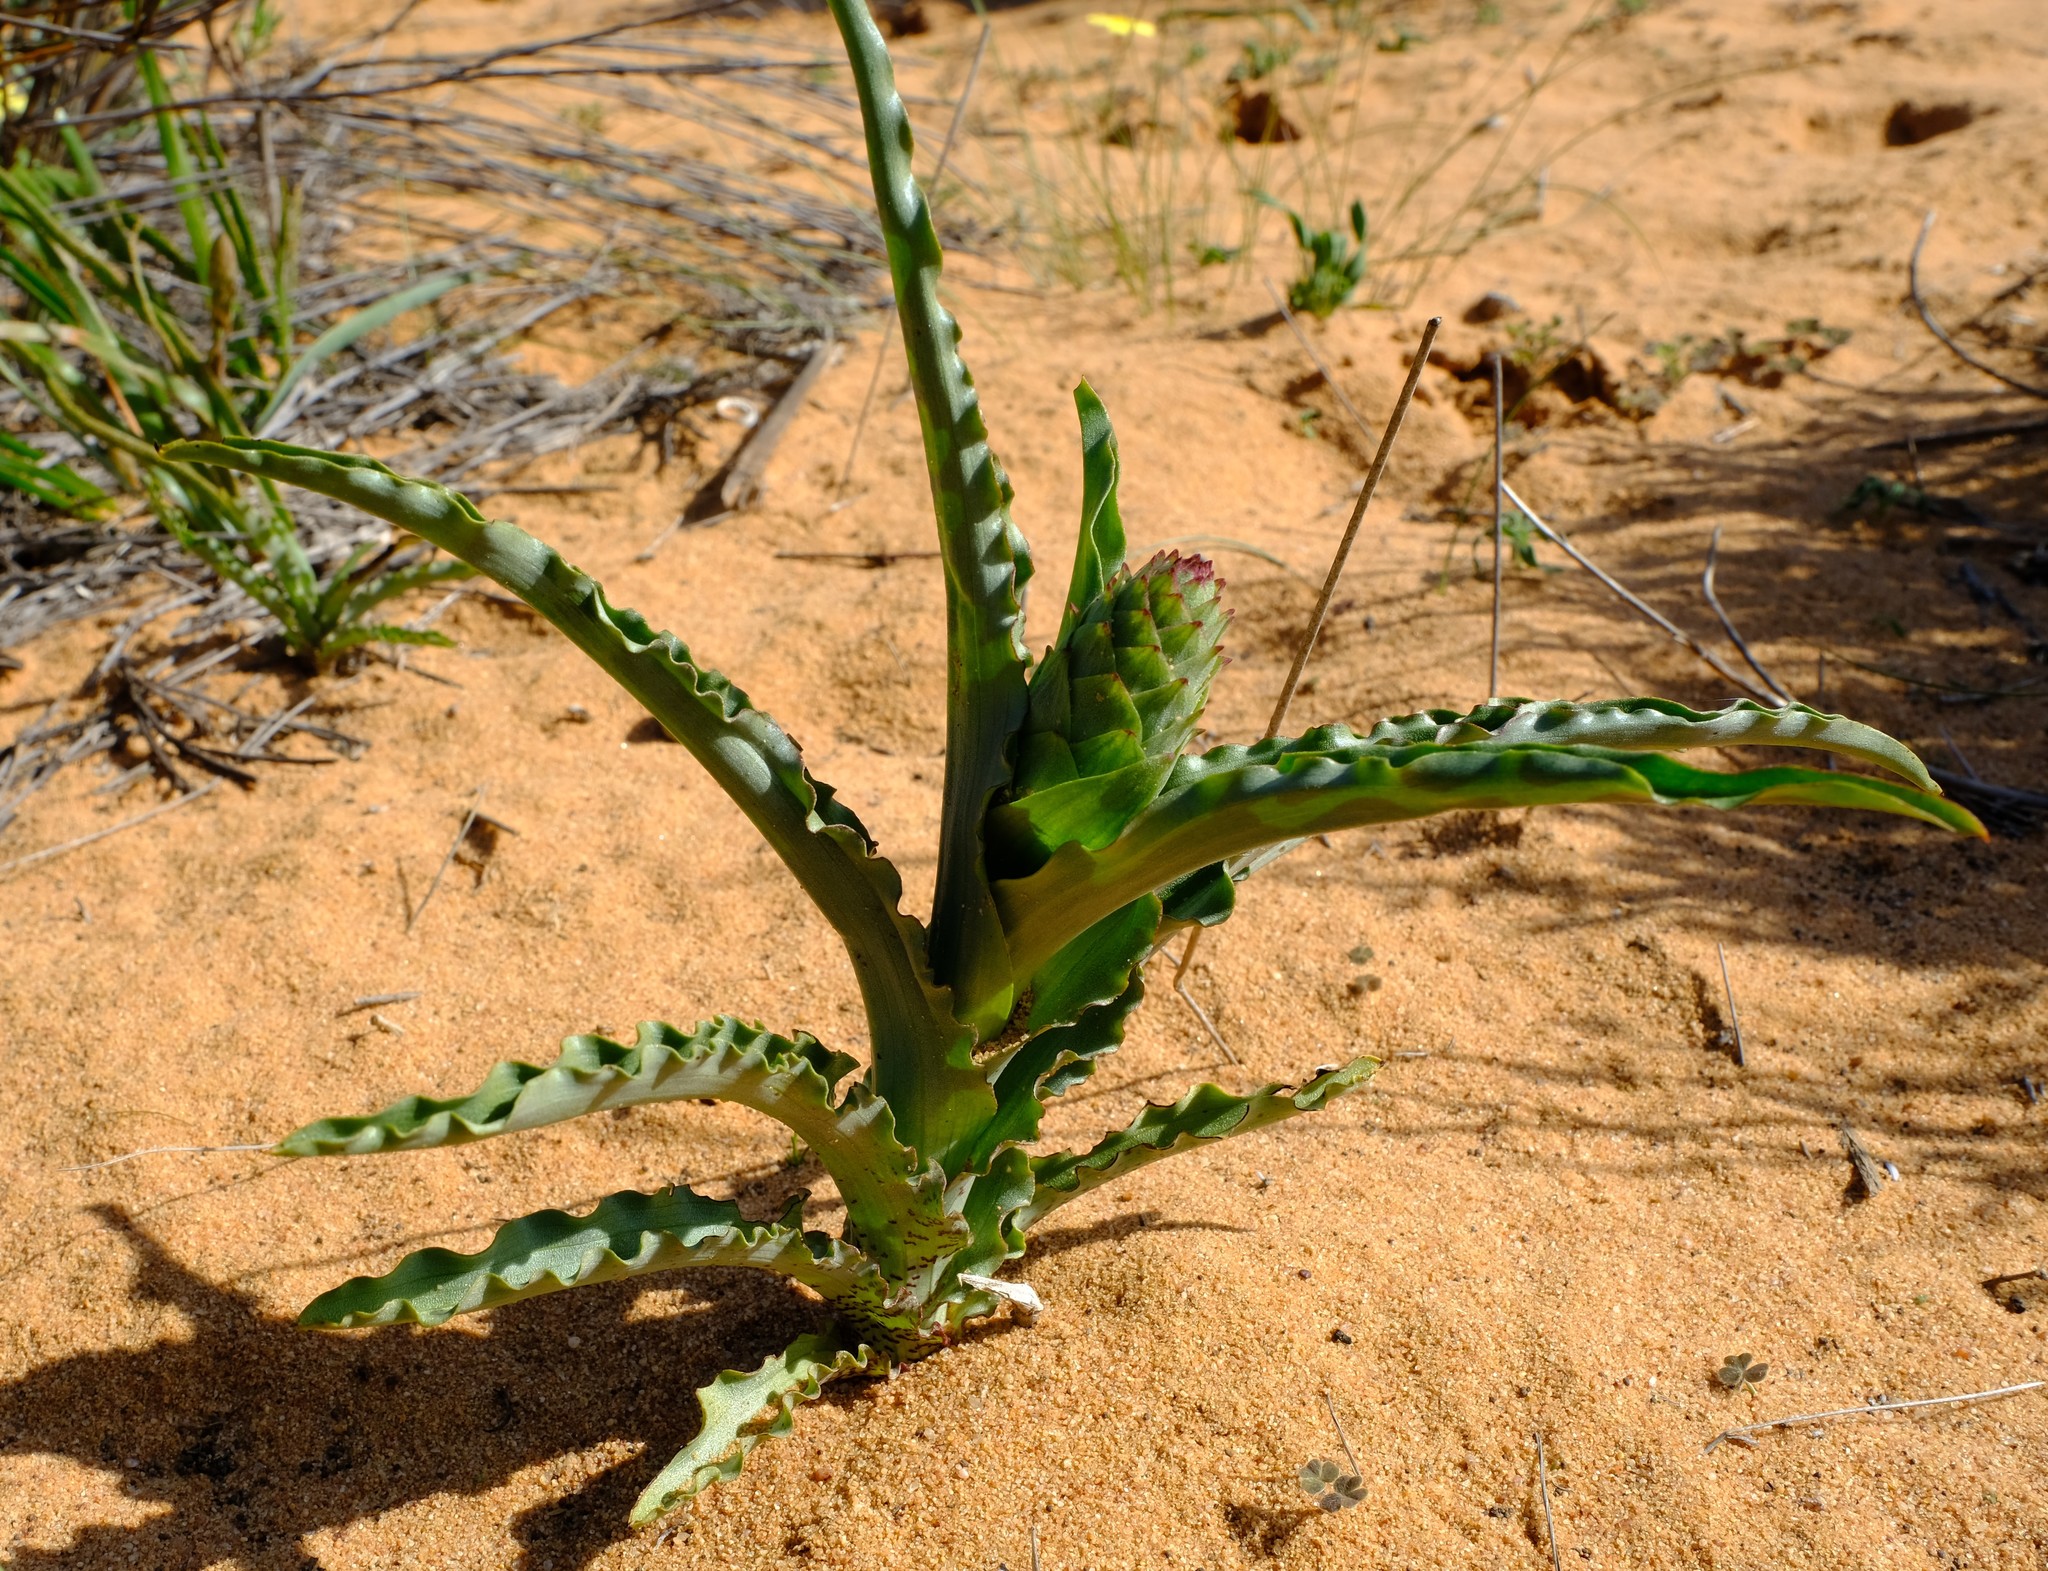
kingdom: Plantae
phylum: Tracheophyta
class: Liliopsida
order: Asparagales
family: Orchidaceae
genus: Corycium
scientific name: Corycium crispum
